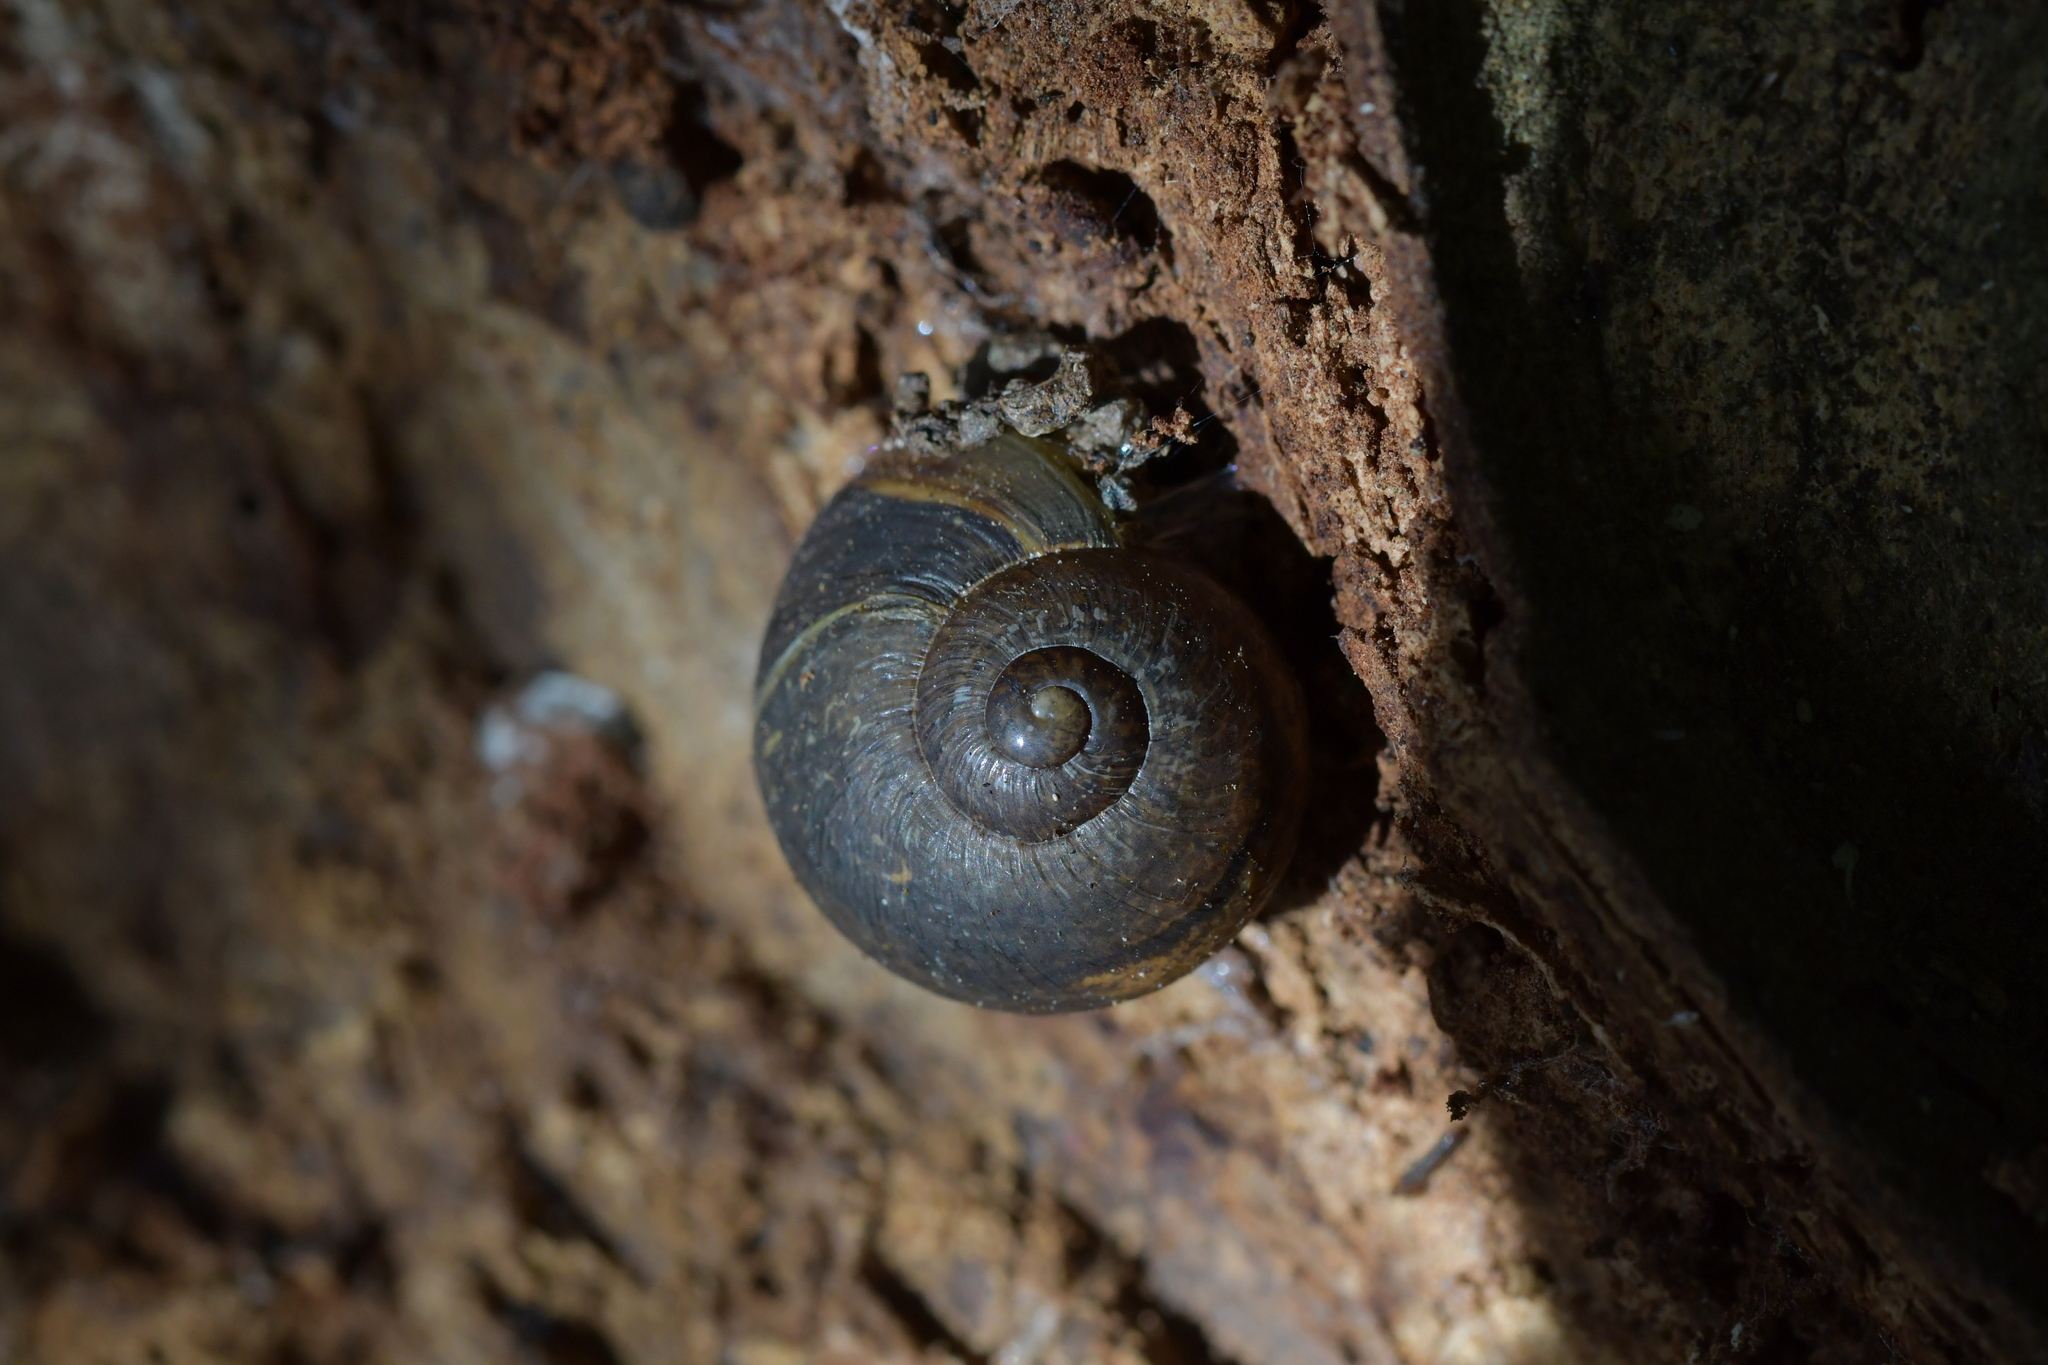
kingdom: Animalia
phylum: Mollusca
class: Gastropoda
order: Stylommatophora
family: Helicidae
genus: Cornu
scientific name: Cornu aspersum
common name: Brown garden snail
